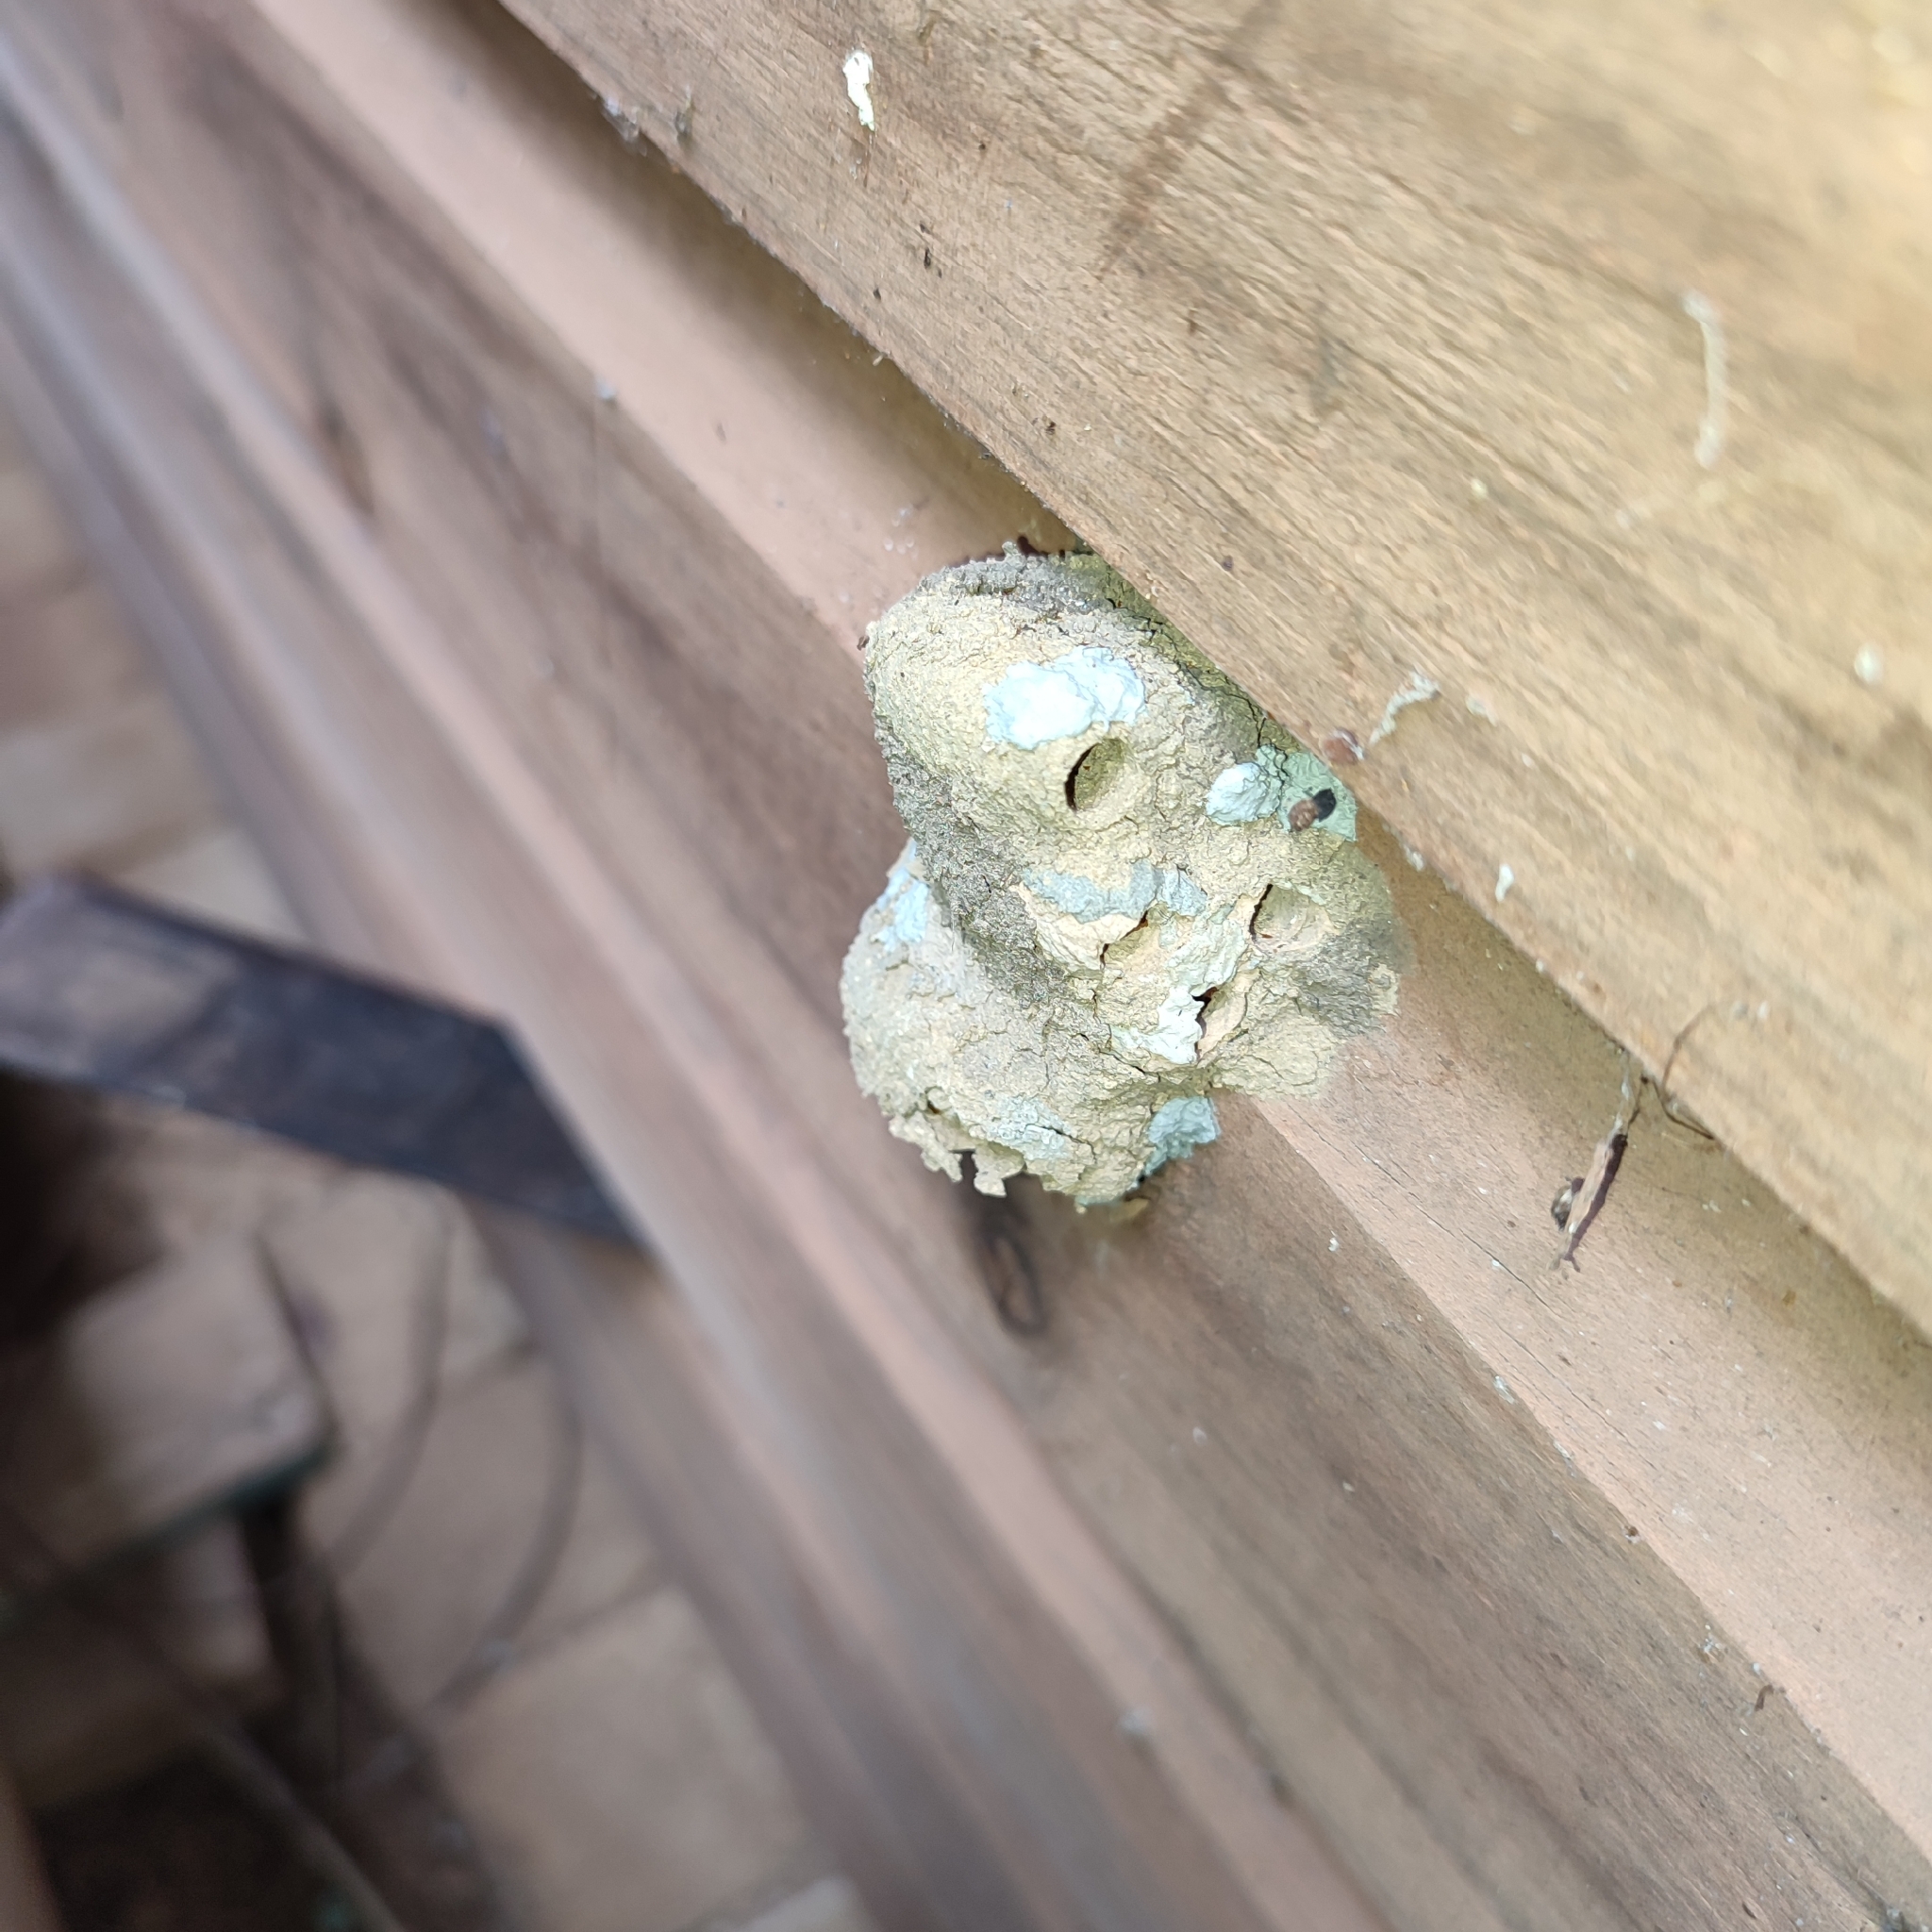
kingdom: Animalia
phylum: Arthropoda
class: Insecta
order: Hymenoptera
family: Sphecidae
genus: Sceliphron
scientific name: Sceliphron caementarium
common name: Mud dauber
